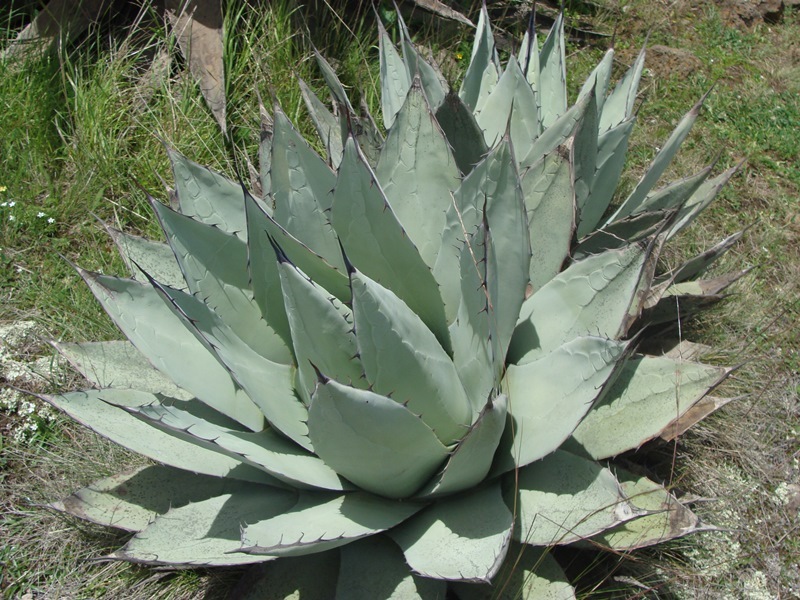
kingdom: Plantae
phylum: Tracheophyta
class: Liliopsida
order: Asparagales
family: Asparagaceae
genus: Agave
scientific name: Agave applanata
